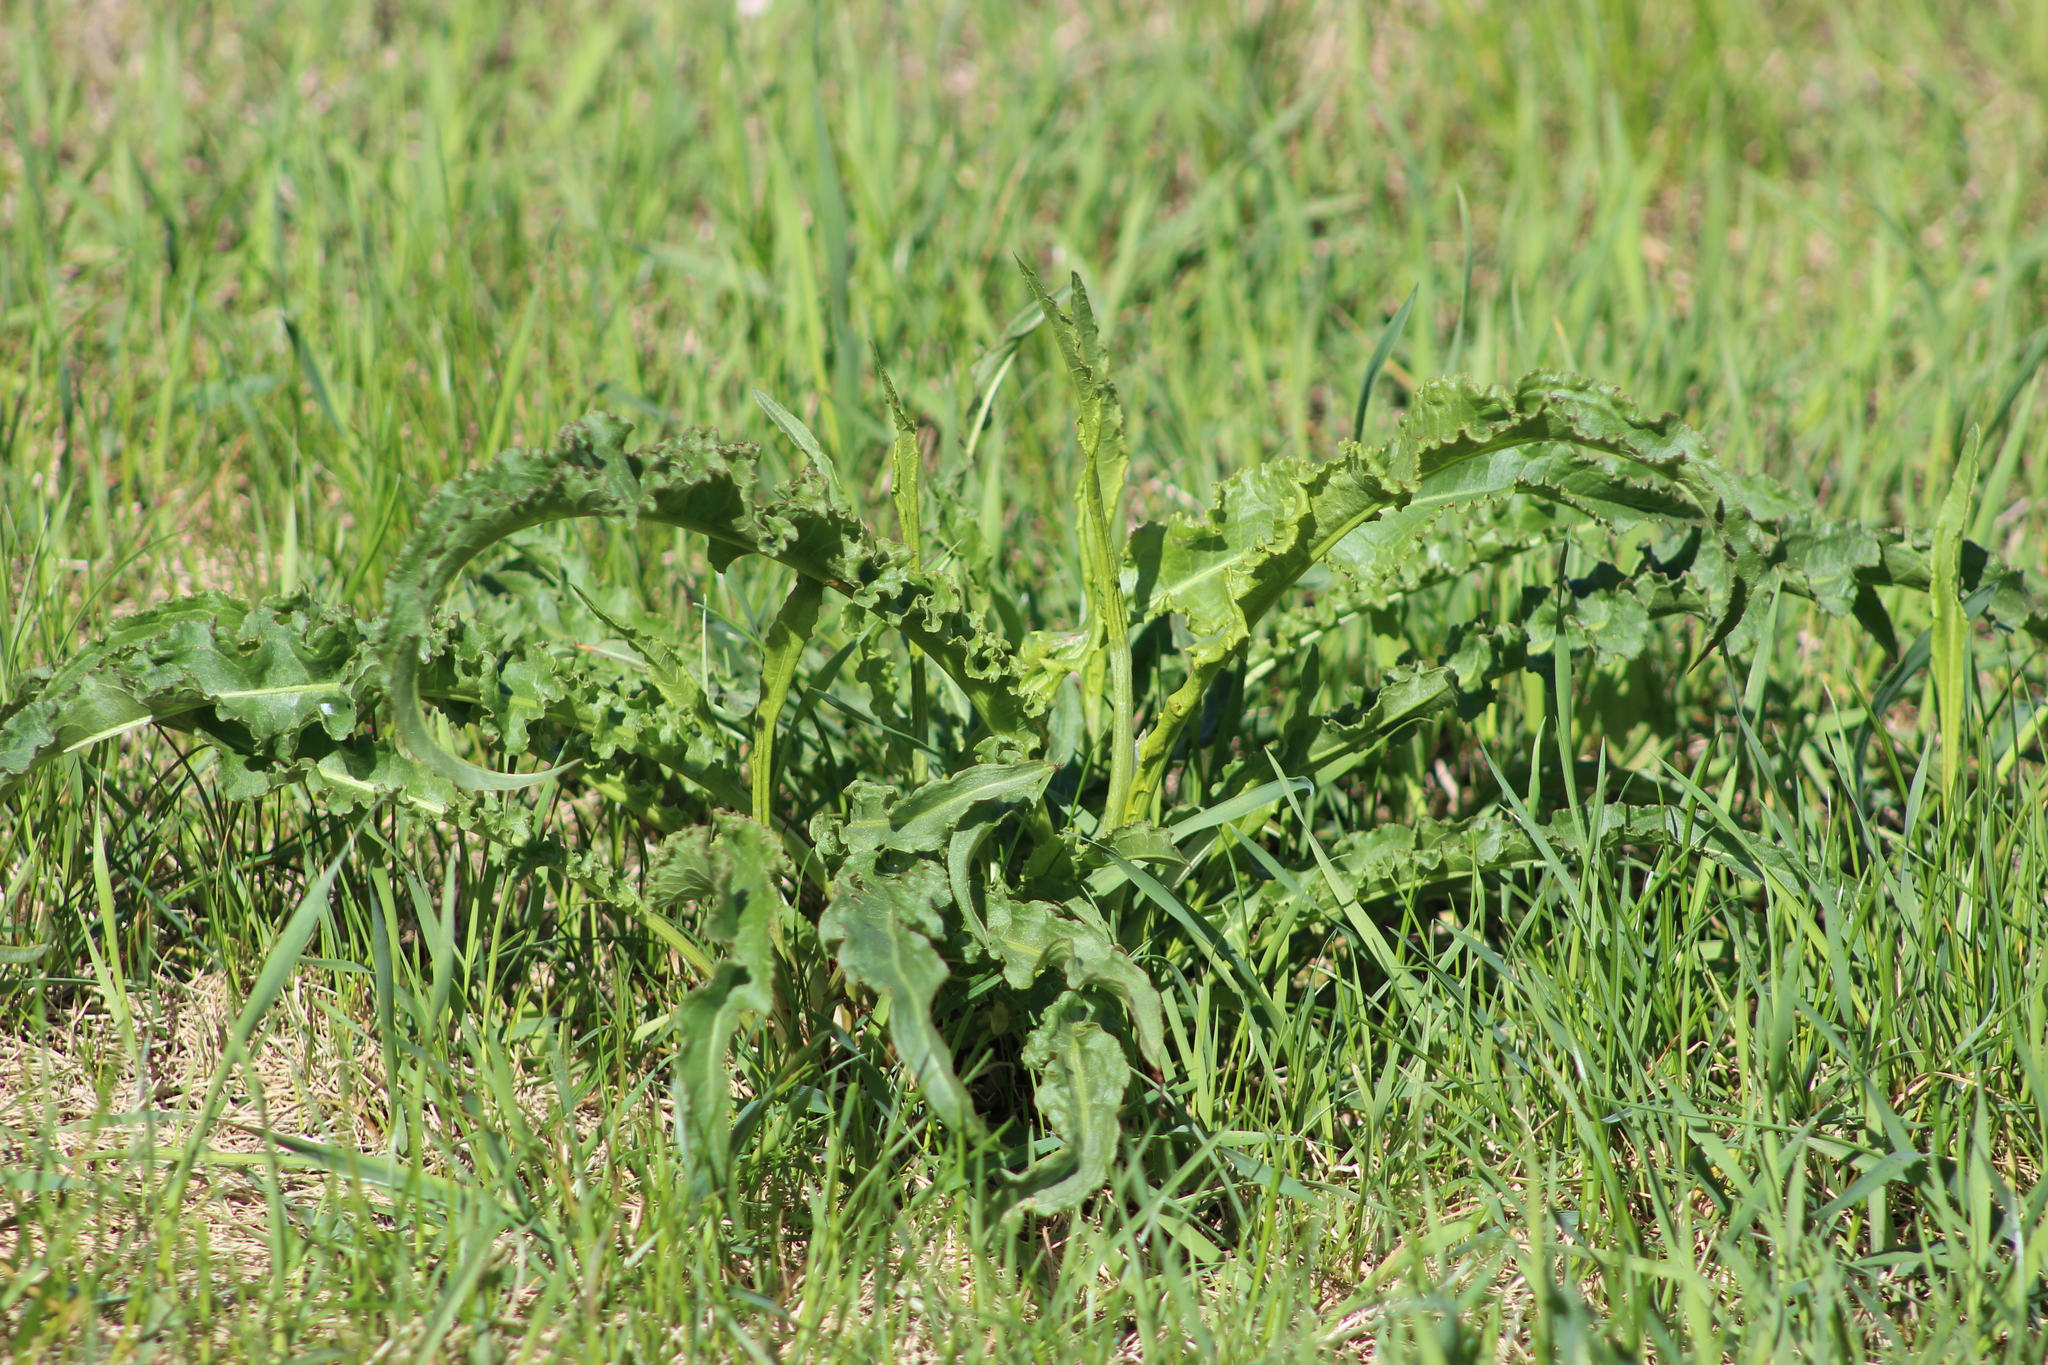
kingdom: Plantae
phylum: Tracheophyta
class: Magnoliopsida
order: Caryophyllales
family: Polygonaceae
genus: Rumex
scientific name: Rumex pseudonatronatus
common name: Field dock
